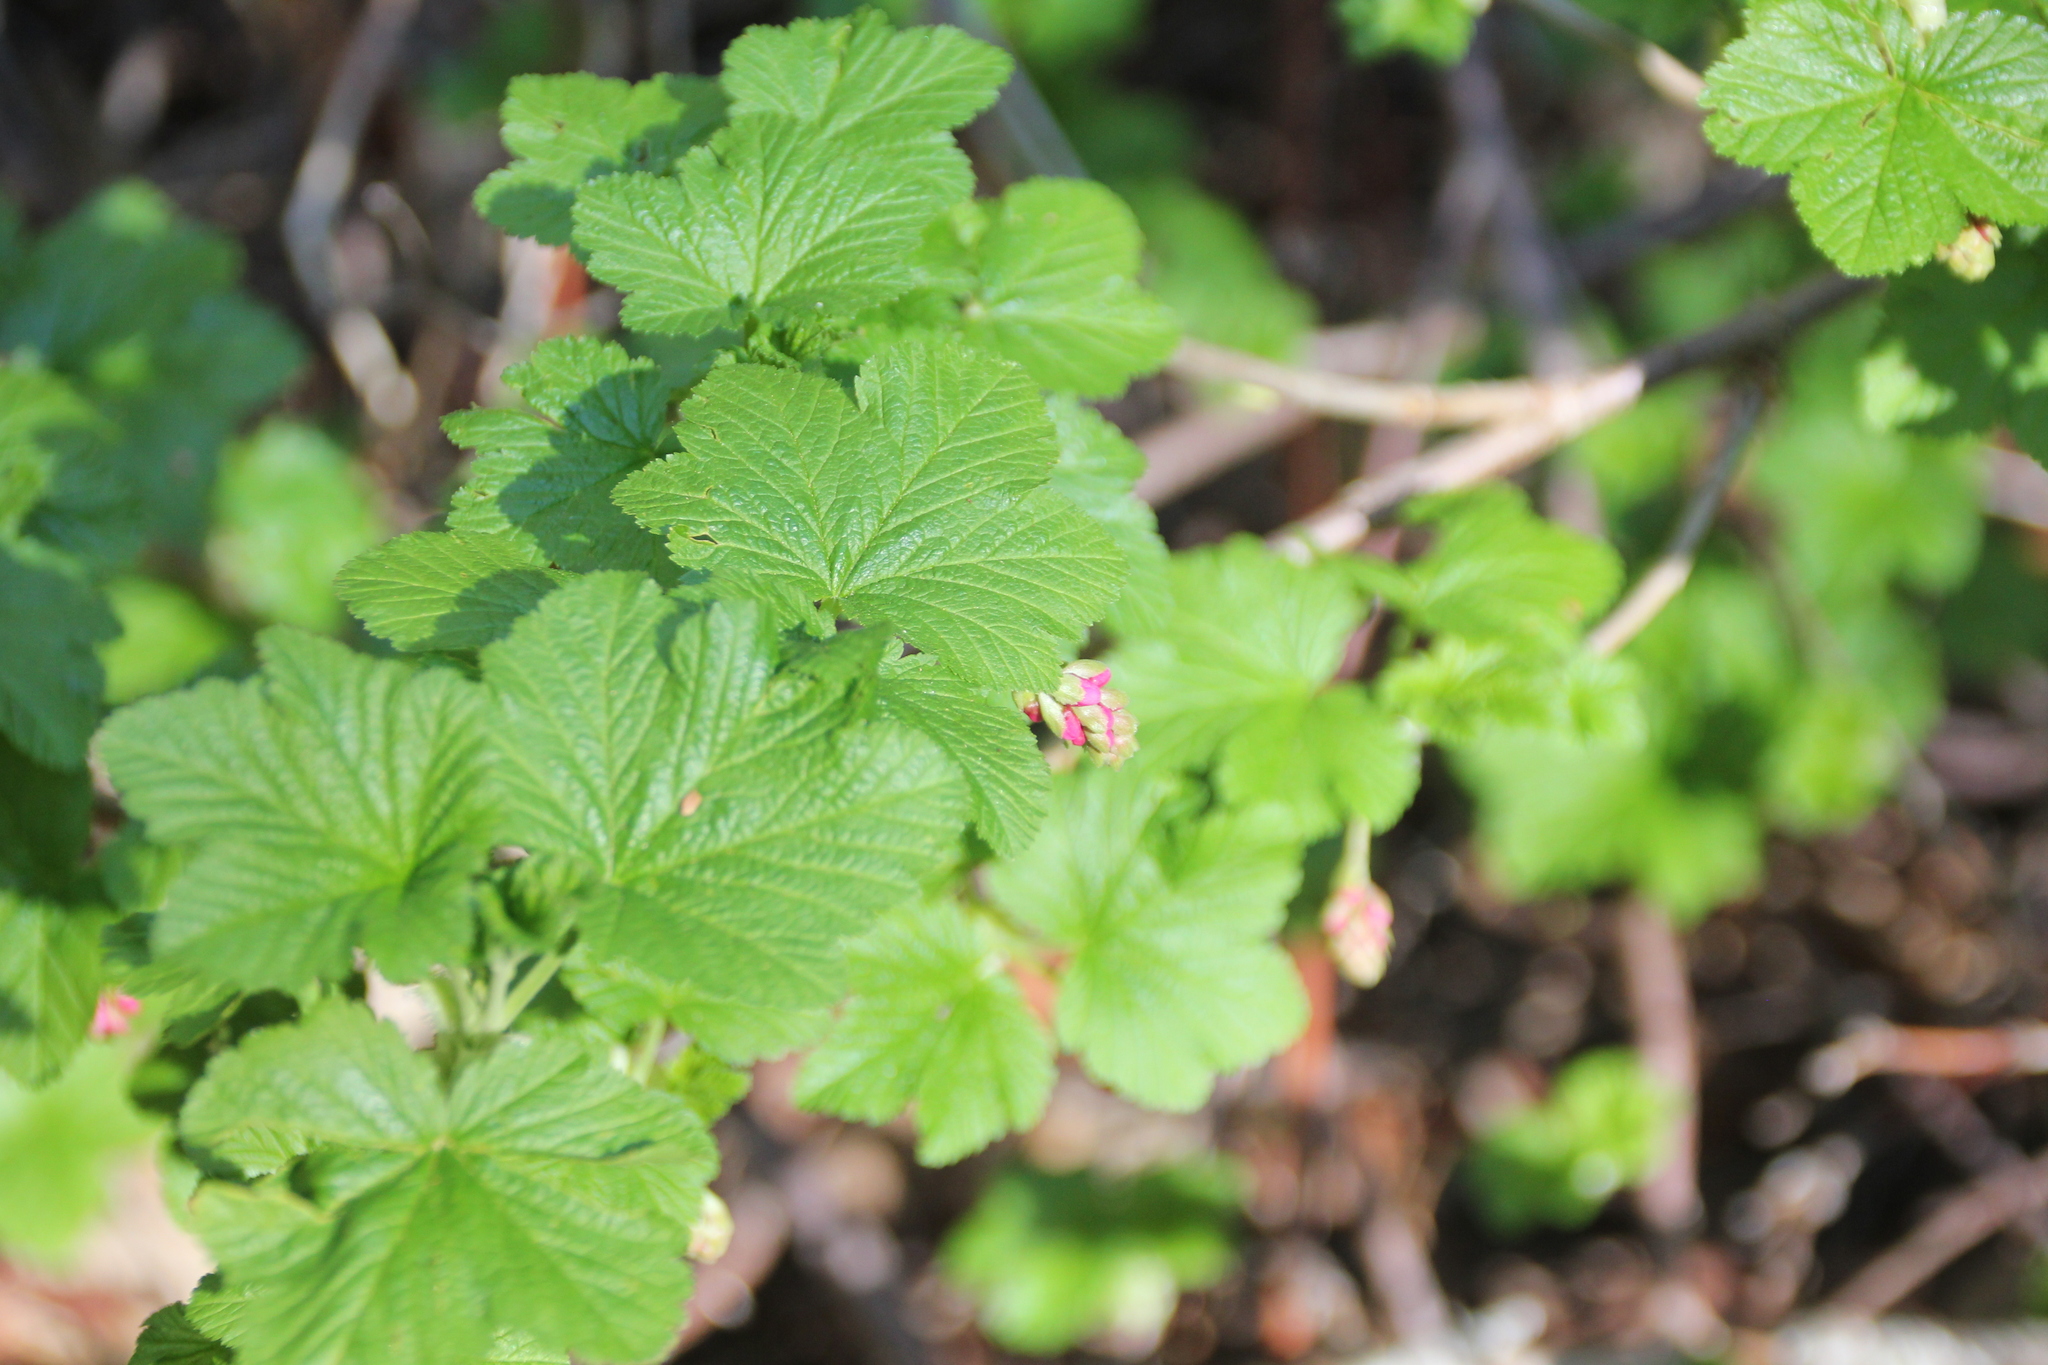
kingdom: Plantae
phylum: Tracheophyta
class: Magnoliopsida
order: Saxifragales
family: Grossulariaceae
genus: Ribes
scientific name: Ribes nevadense
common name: Mountain pink currant
